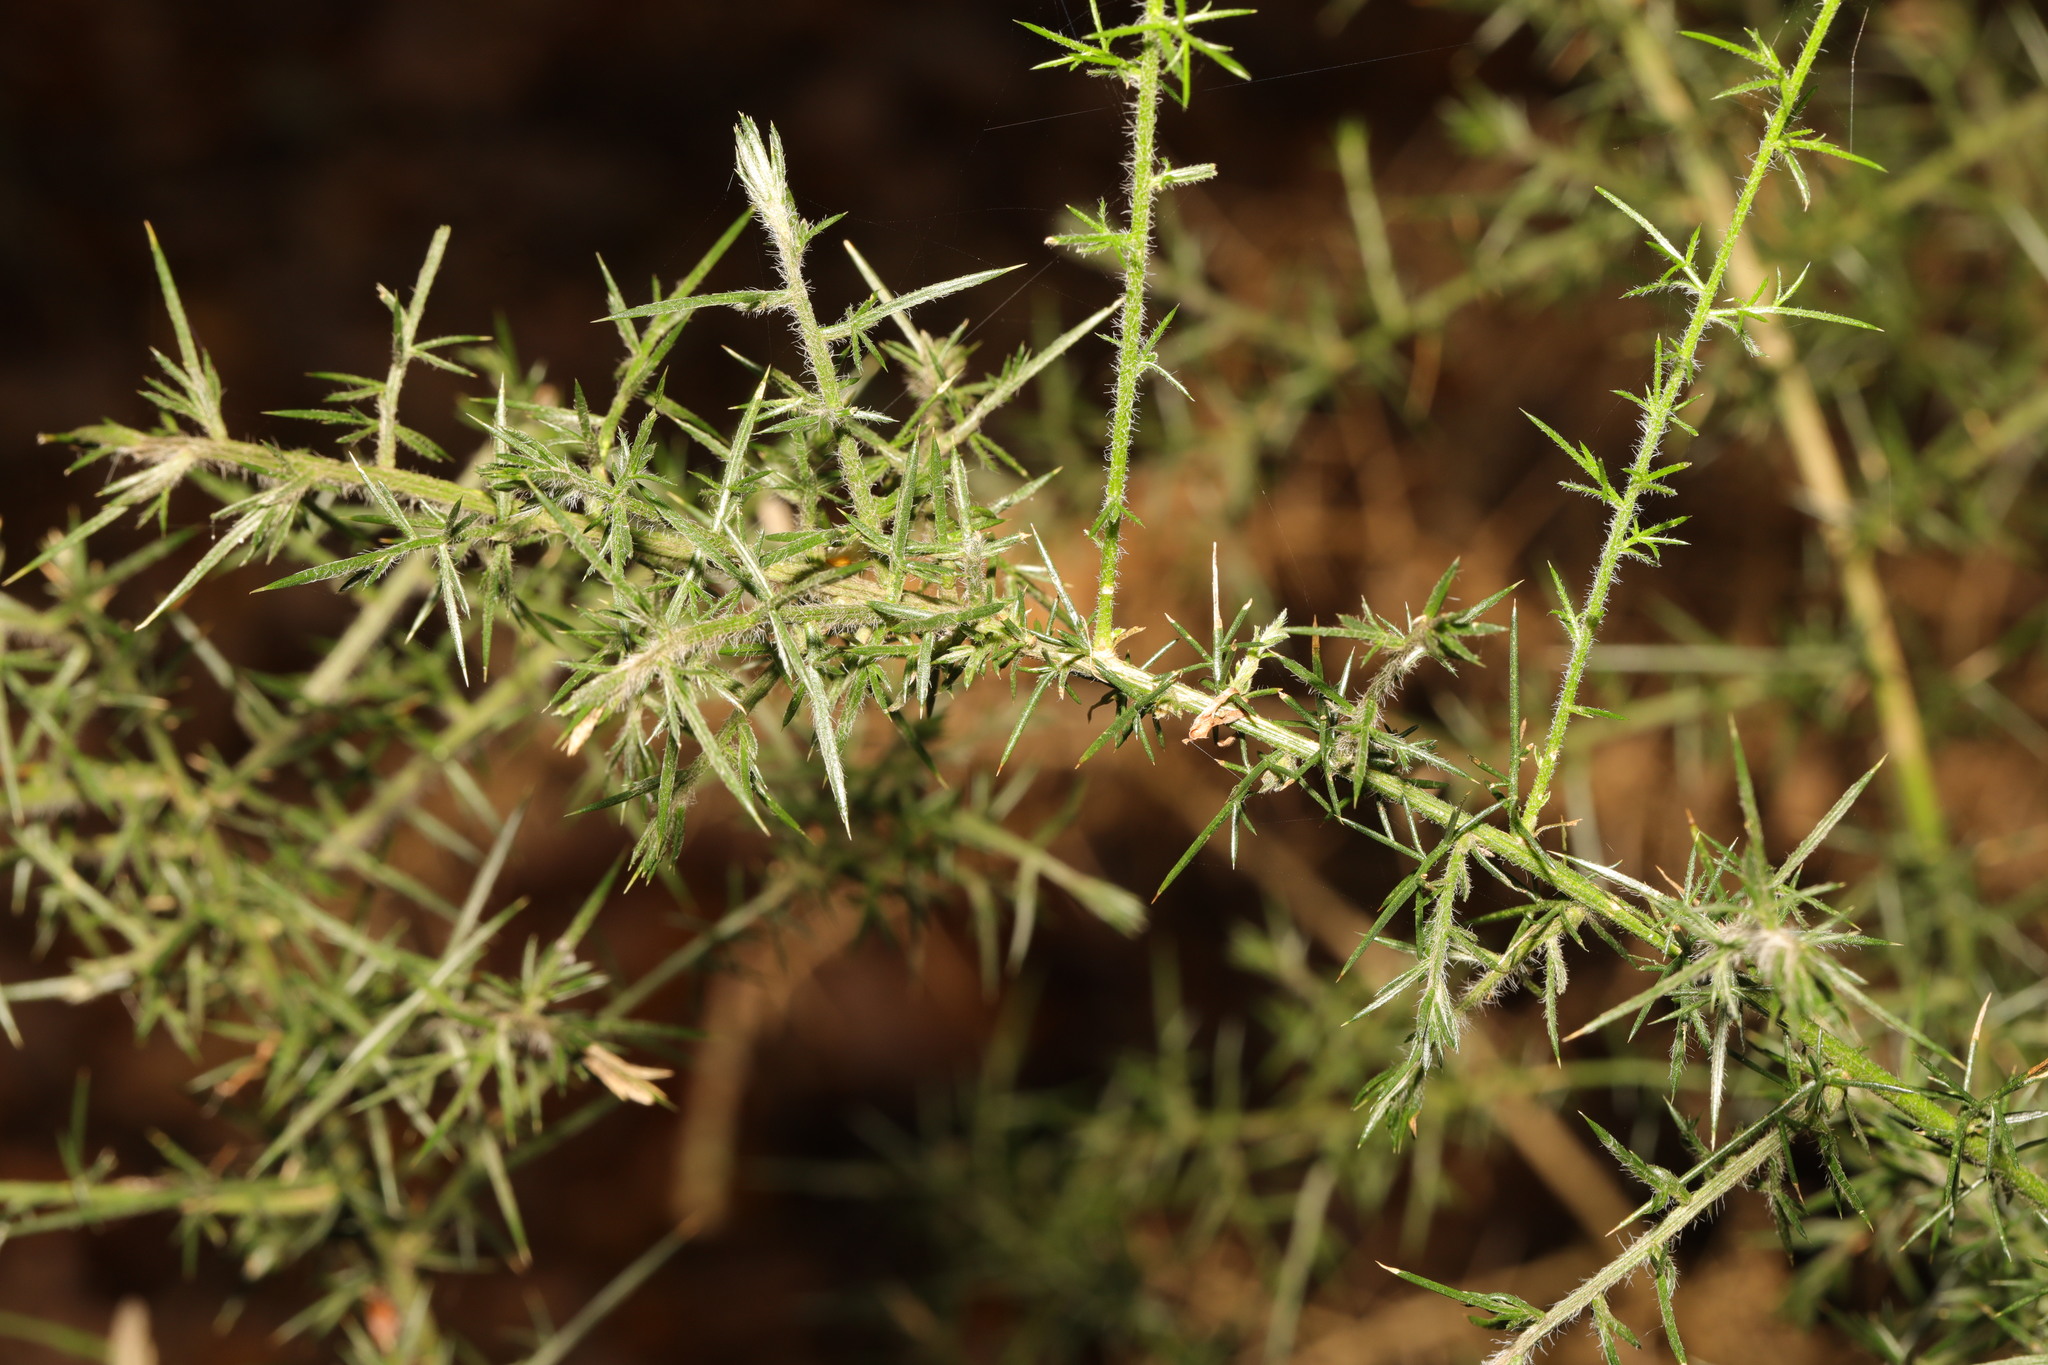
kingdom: Plantae
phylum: Tracheophyta
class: Magnoliopsida
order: Fabales
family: Fabaceae
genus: Ulex
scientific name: Ulex europaeus
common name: Common gorse
